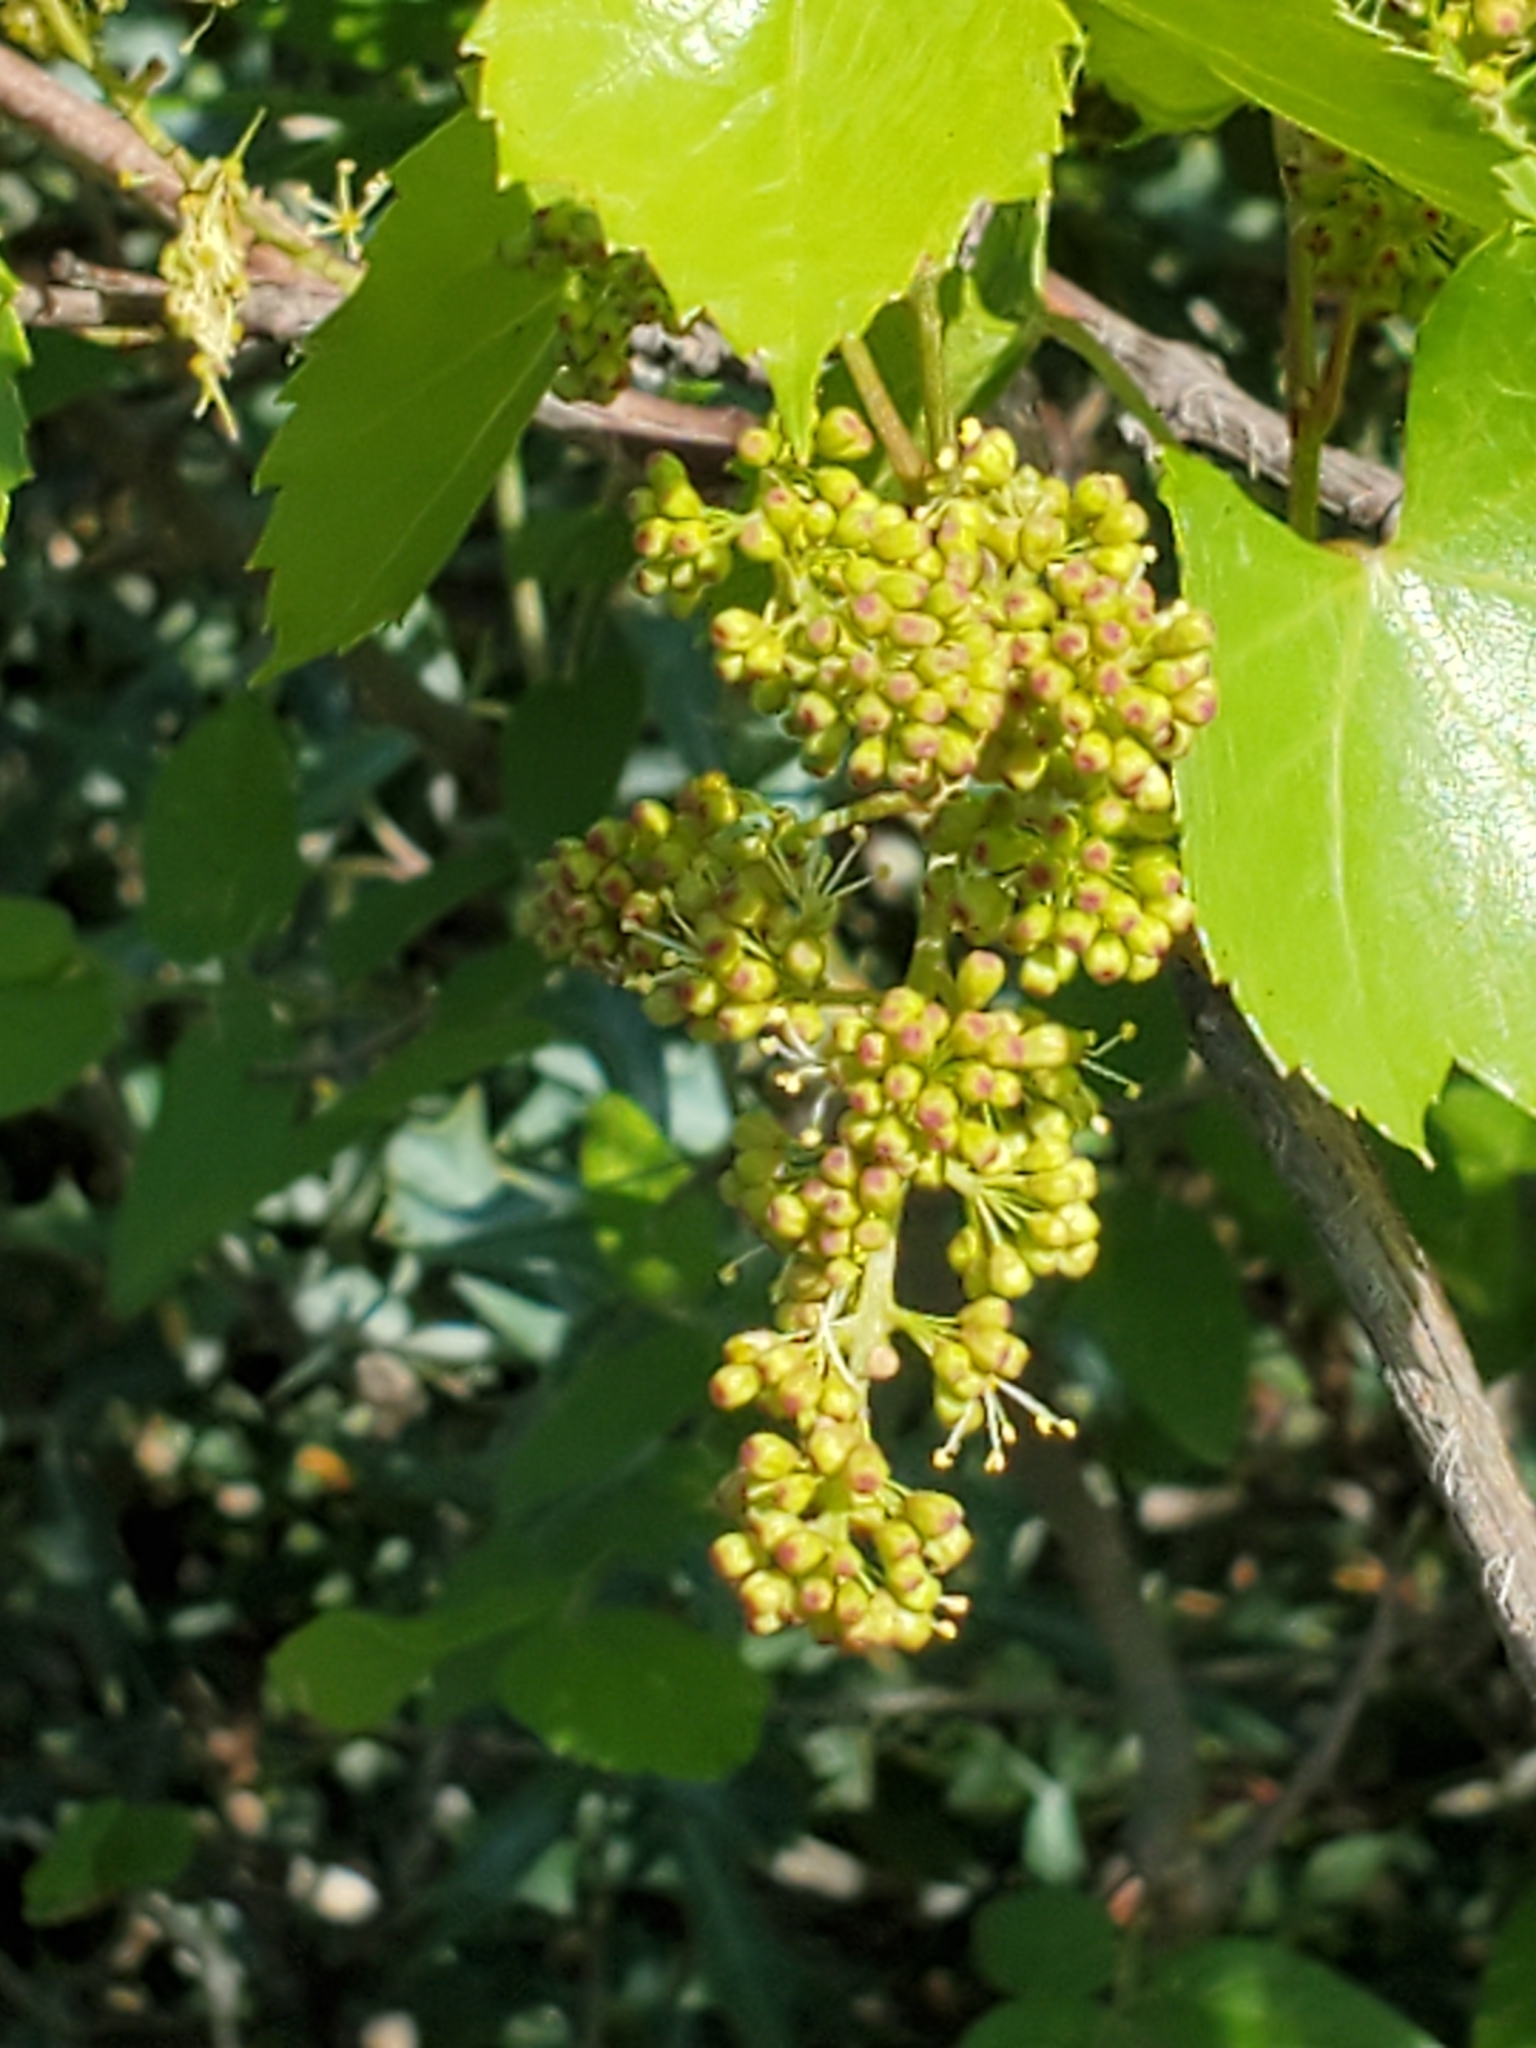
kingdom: Plantae
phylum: Tracheophyta
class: Magnoliopsida
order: Vitales
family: Vitaceae
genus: Vitis
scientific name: Vitis monticola
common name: Mountain grape
